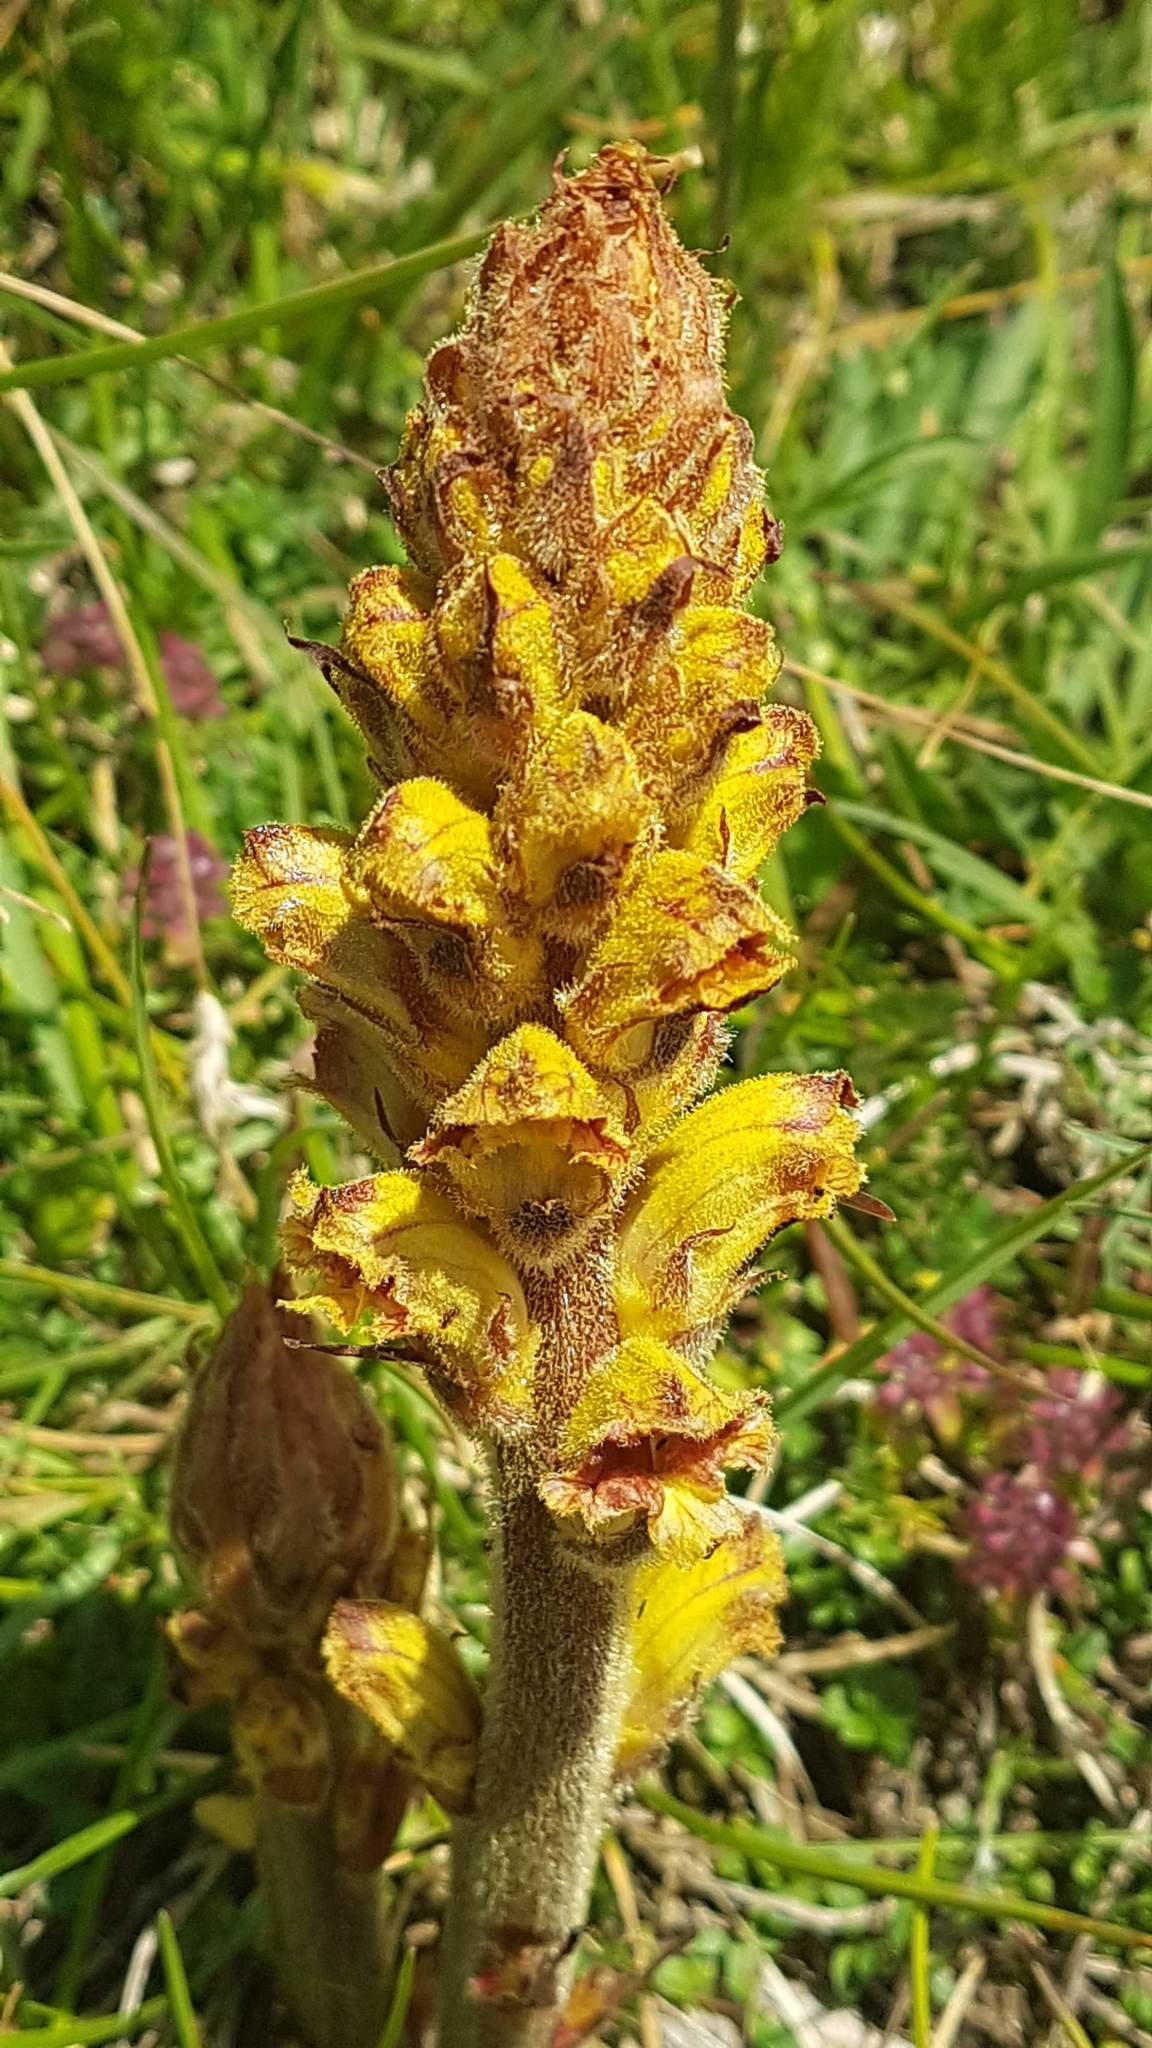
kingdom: Plantae
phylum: Tracheophyta
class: Magnoliopsida
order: Lamiales
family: Orobanchaceae
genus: Orobanche
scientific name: Orobanche gracilis
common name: Slender broomrape
